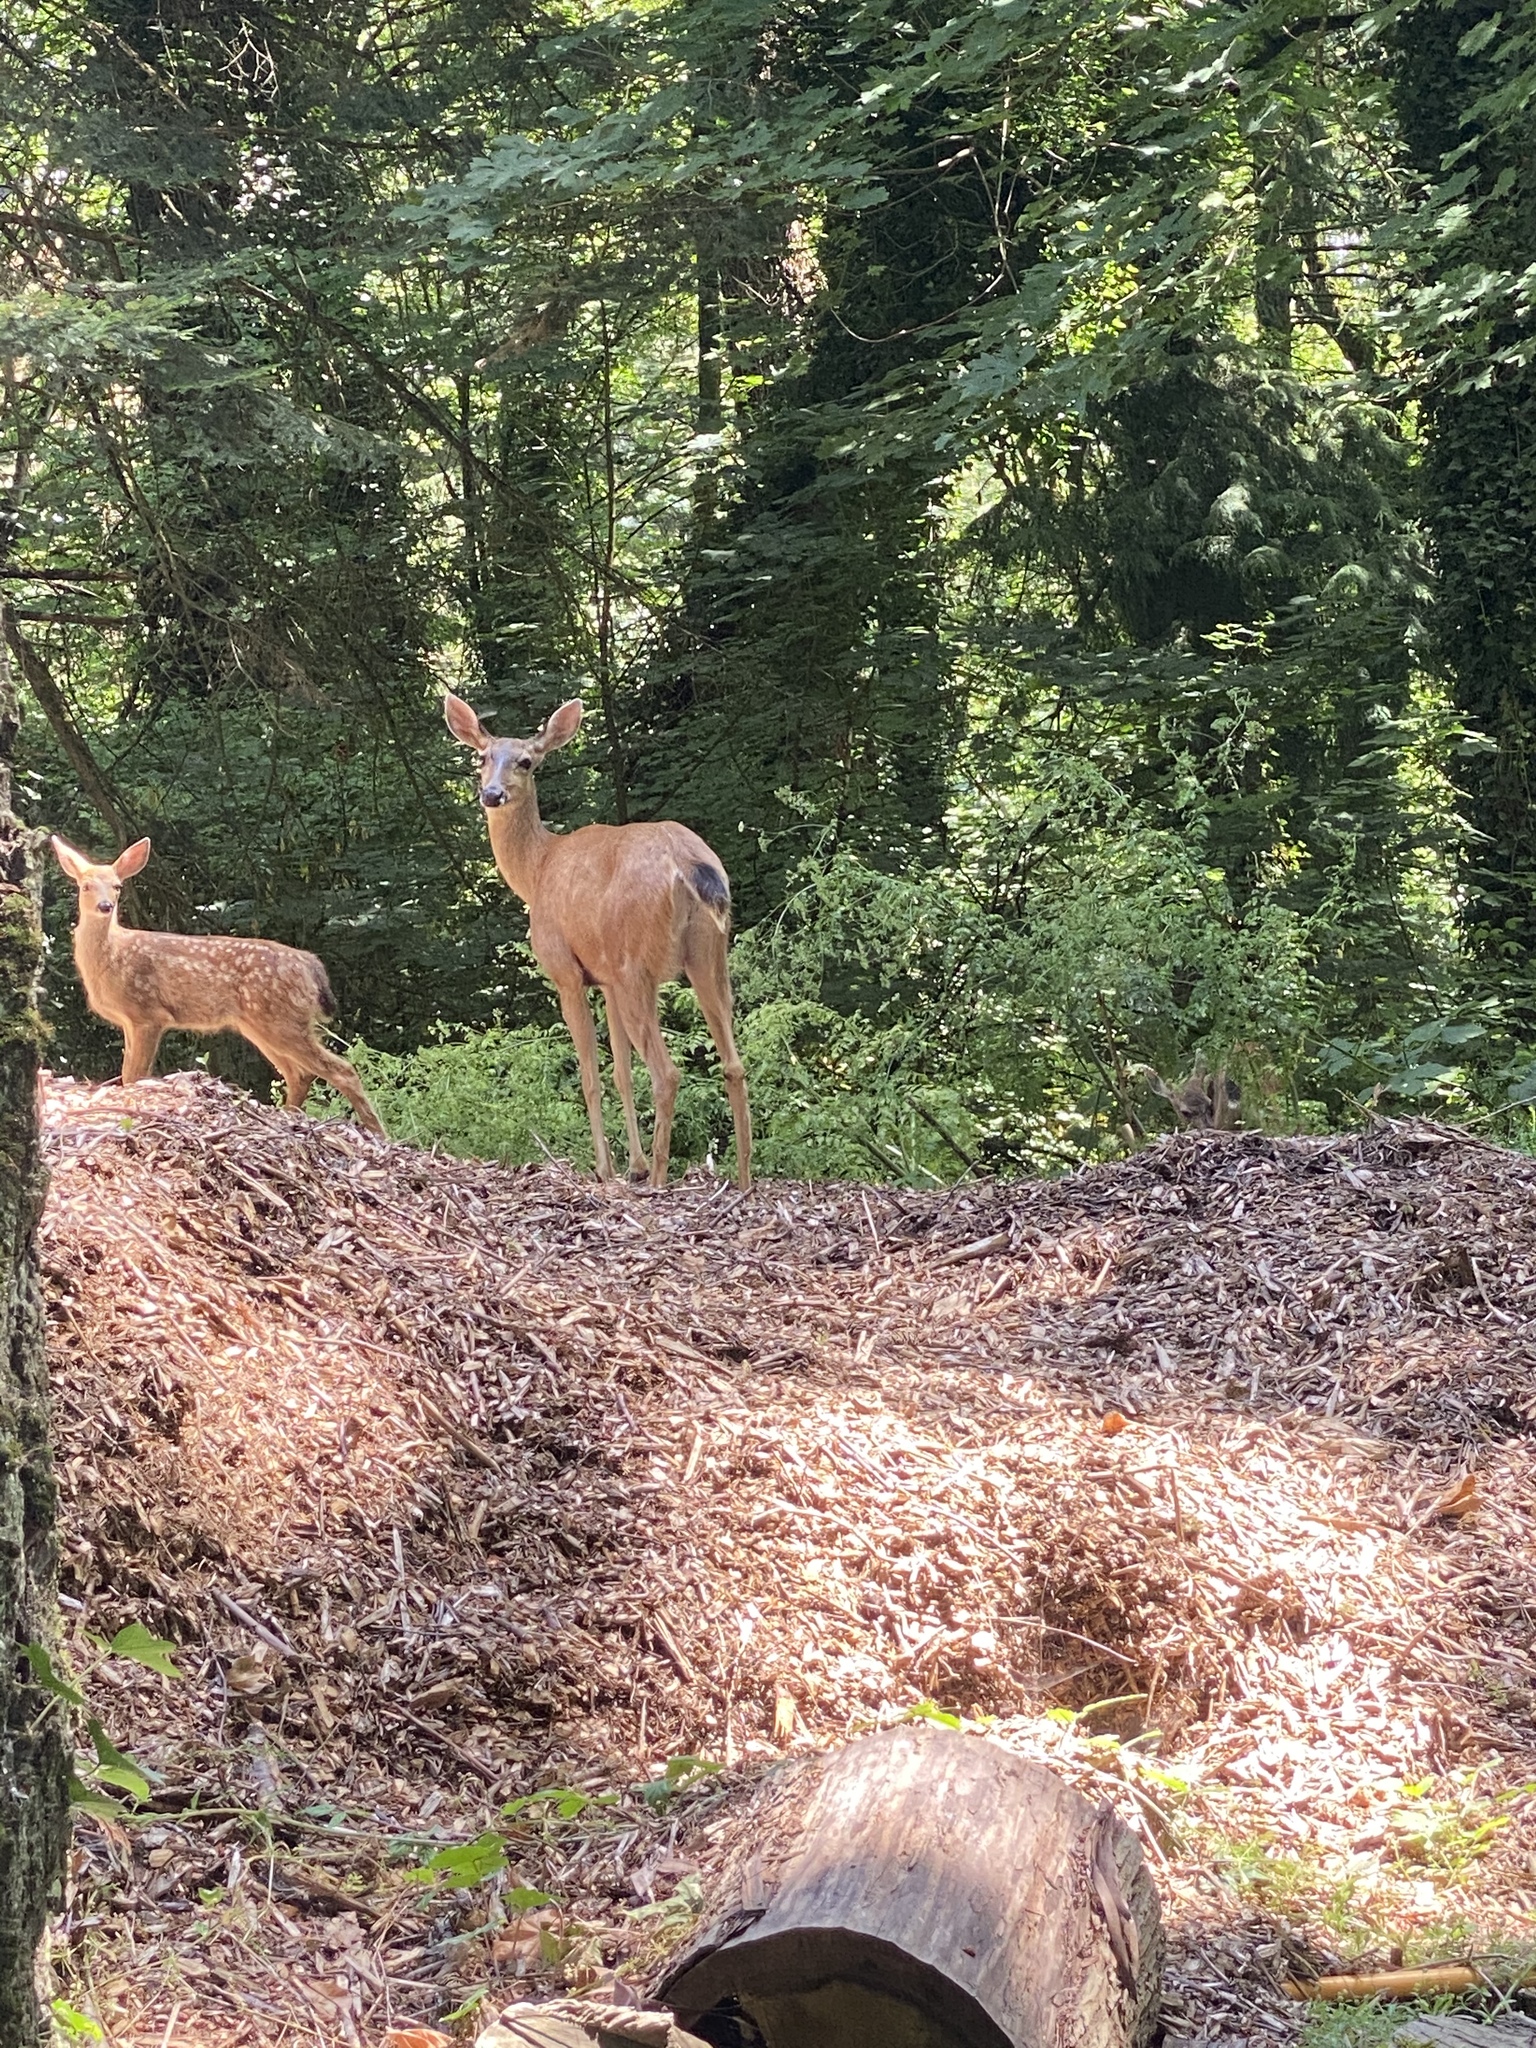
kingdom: Animalia
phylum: Chordata
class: Mammalia
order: Artiodactyla
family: Cervidae
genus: Odocoileus
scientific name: Odocoileus hemionus
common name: Mule deer
